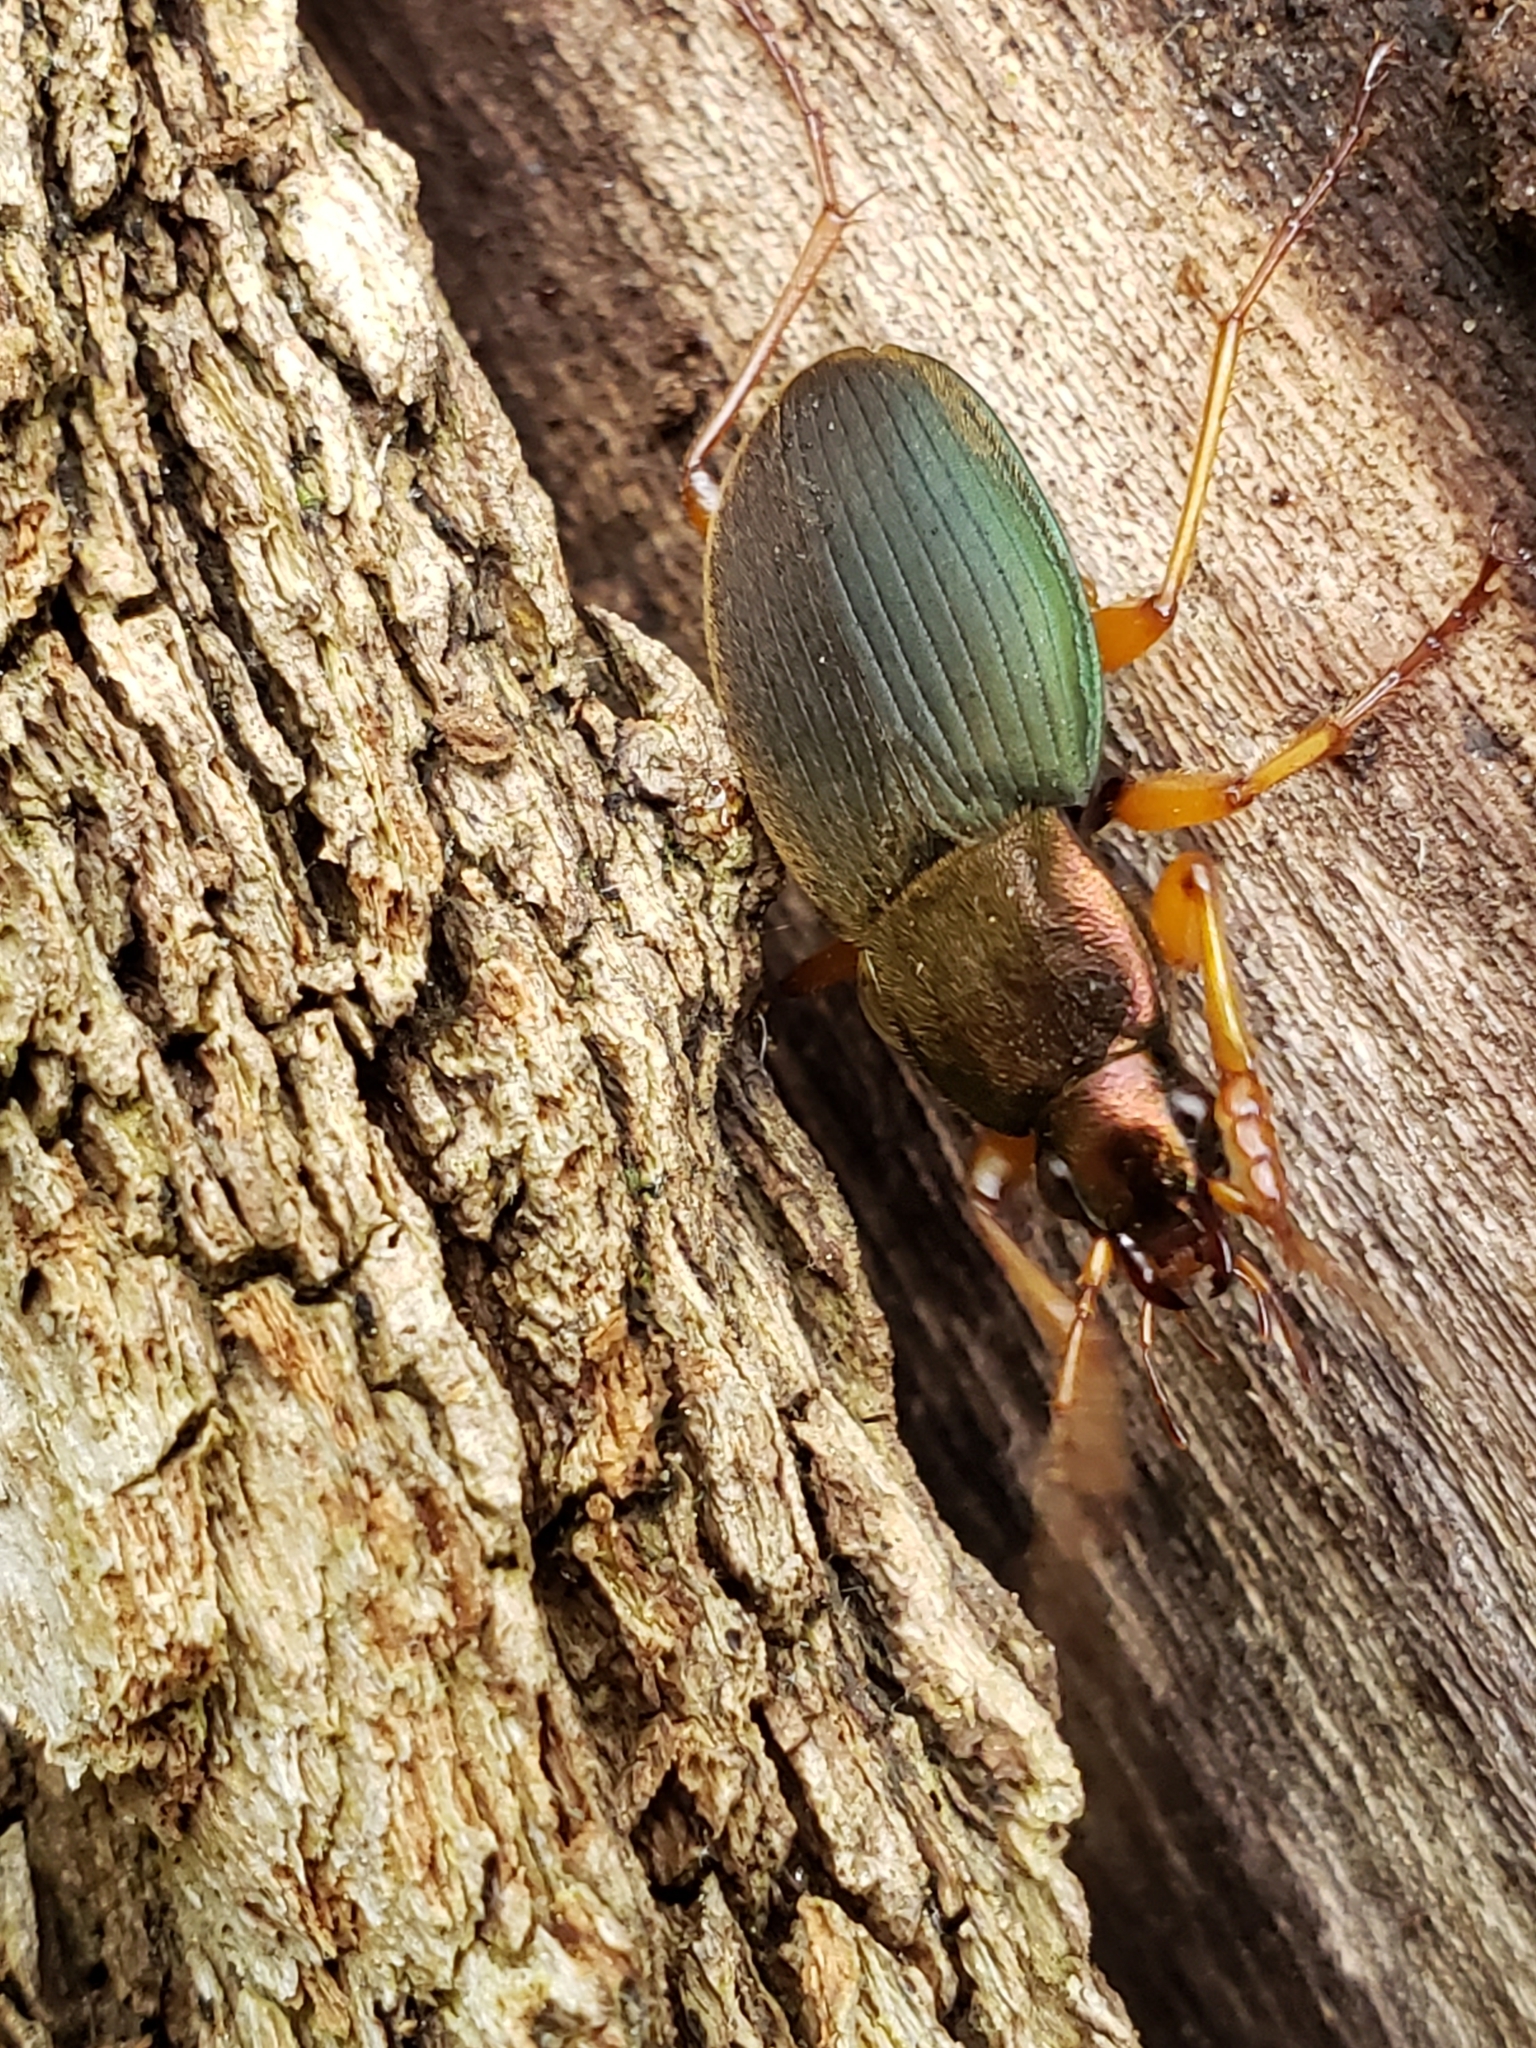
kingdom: Animalia
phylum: Arthropoda
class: Insecta
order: Coleoptera
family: Carabidae
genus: Chlaenius
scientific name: Chlaenius aestivus
